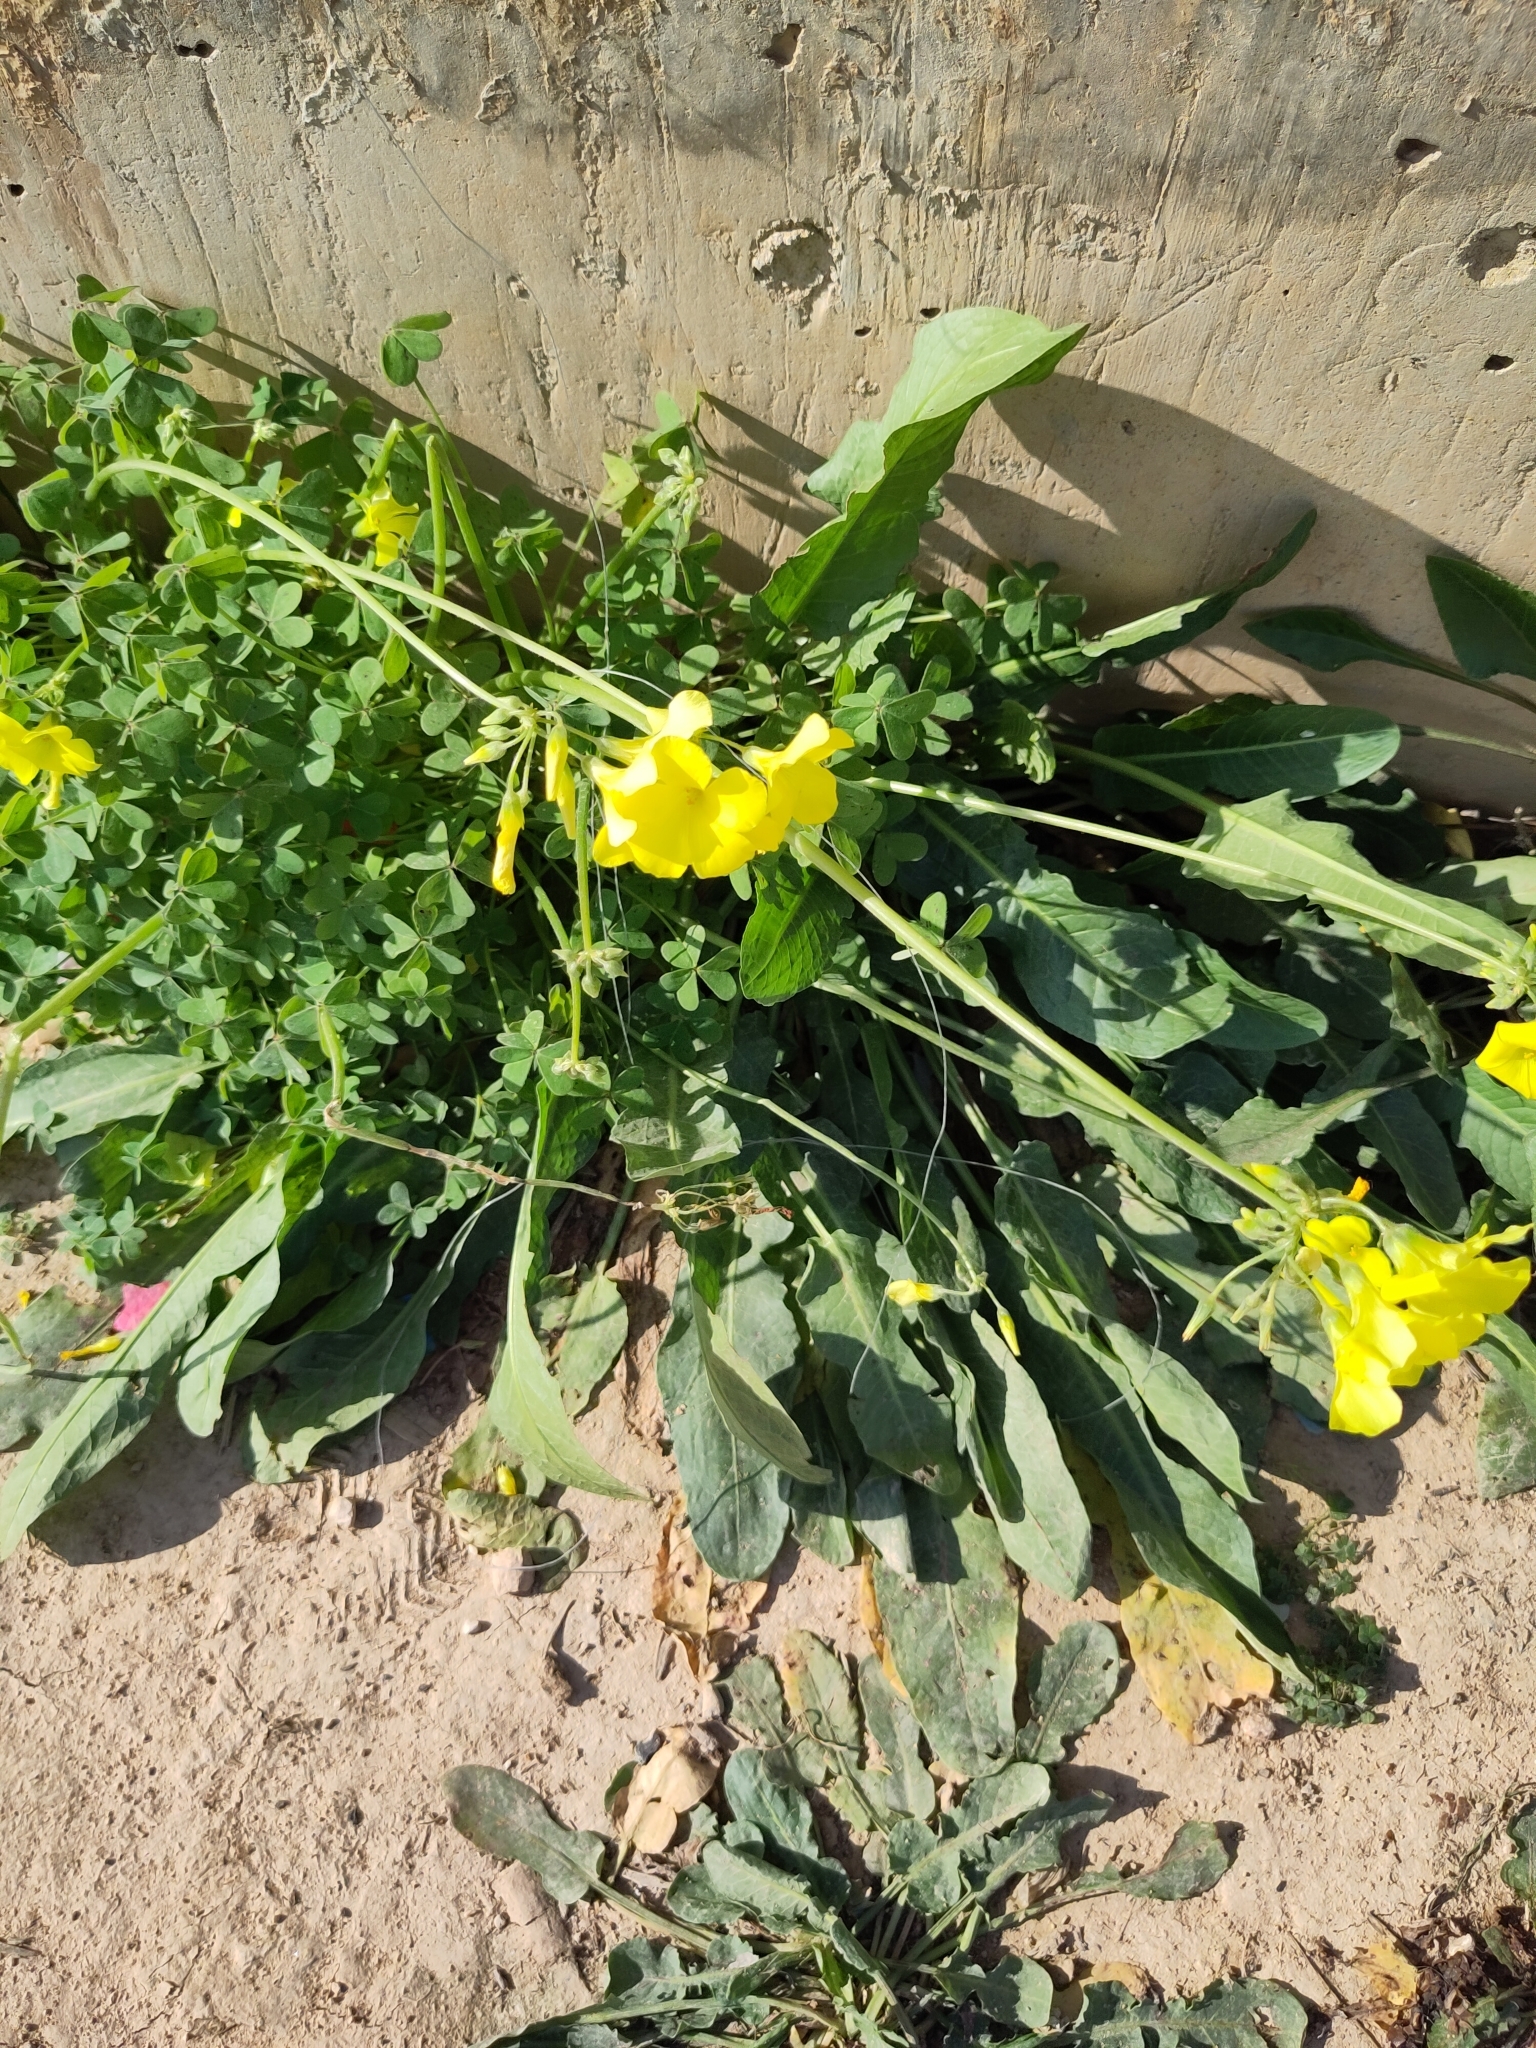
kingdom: Plantae
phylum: Tracheophyta
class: Magnoliopsida
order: Oxalidales
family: Oxalidaceae
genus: Oxalis
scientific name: Oxalis pes-caprae
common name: Bermuda-buttercup
